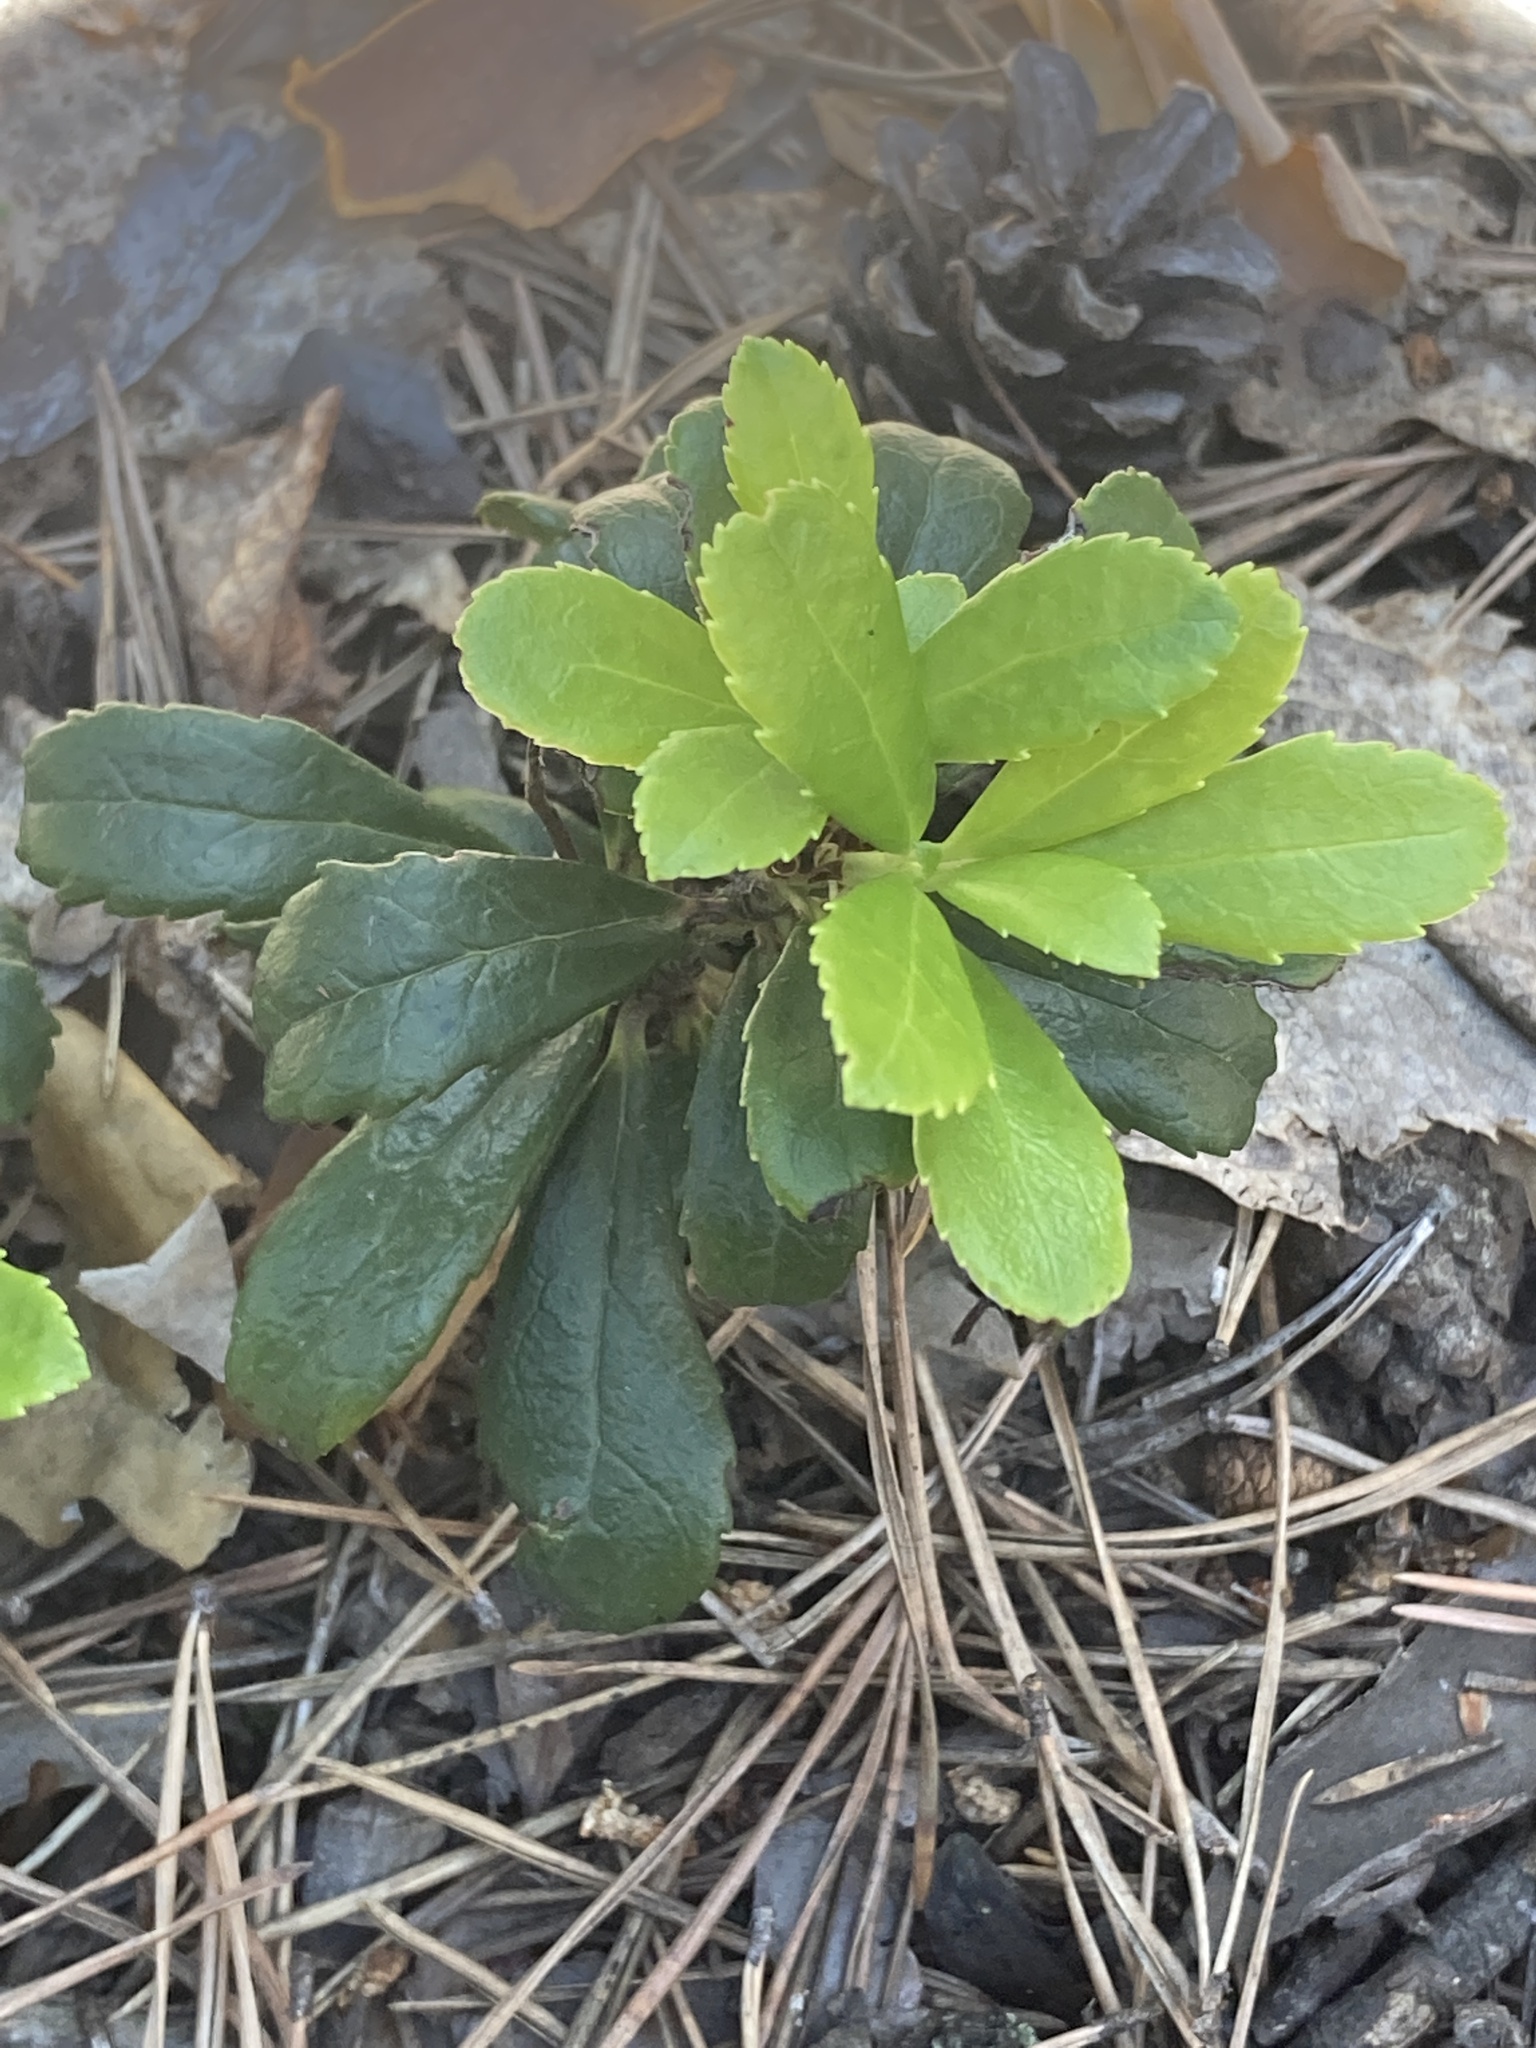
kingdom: Plantae
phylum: Tracheophyta
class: Magnoliopsida
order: Ericales
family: Ericaceae
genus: Chimaphila
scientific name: Chimaphila umbellata
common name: Pipsissewa
